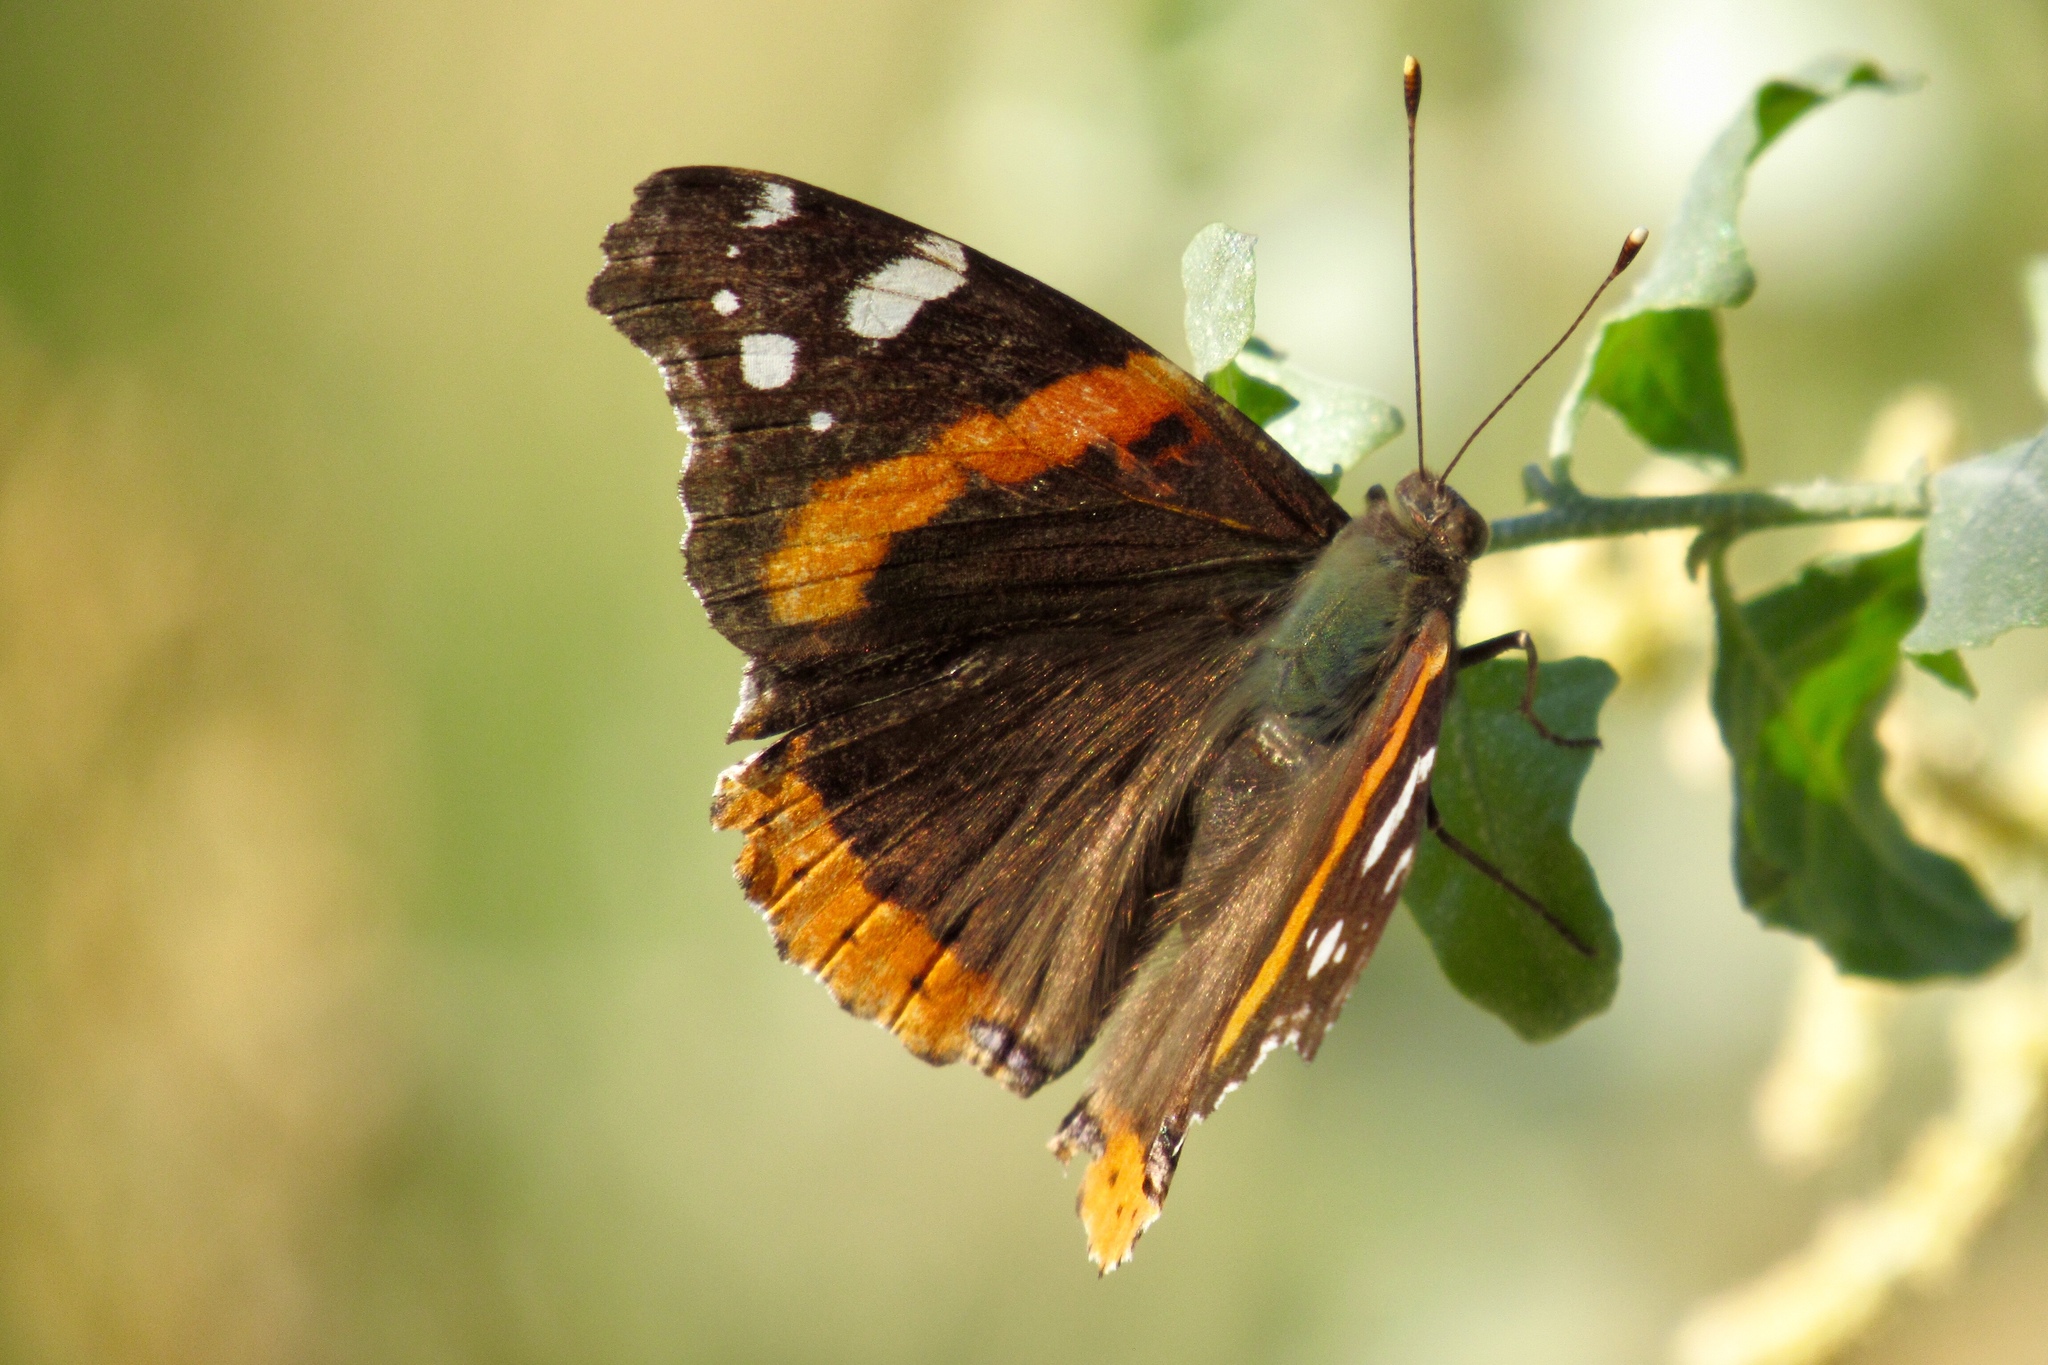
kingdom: Animalia
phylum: Arthropoda
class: Insecta
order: Lepidoptera
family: Nymphalidae
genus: Vanessa
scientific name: Vanessa atalanta
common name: Red admiral
